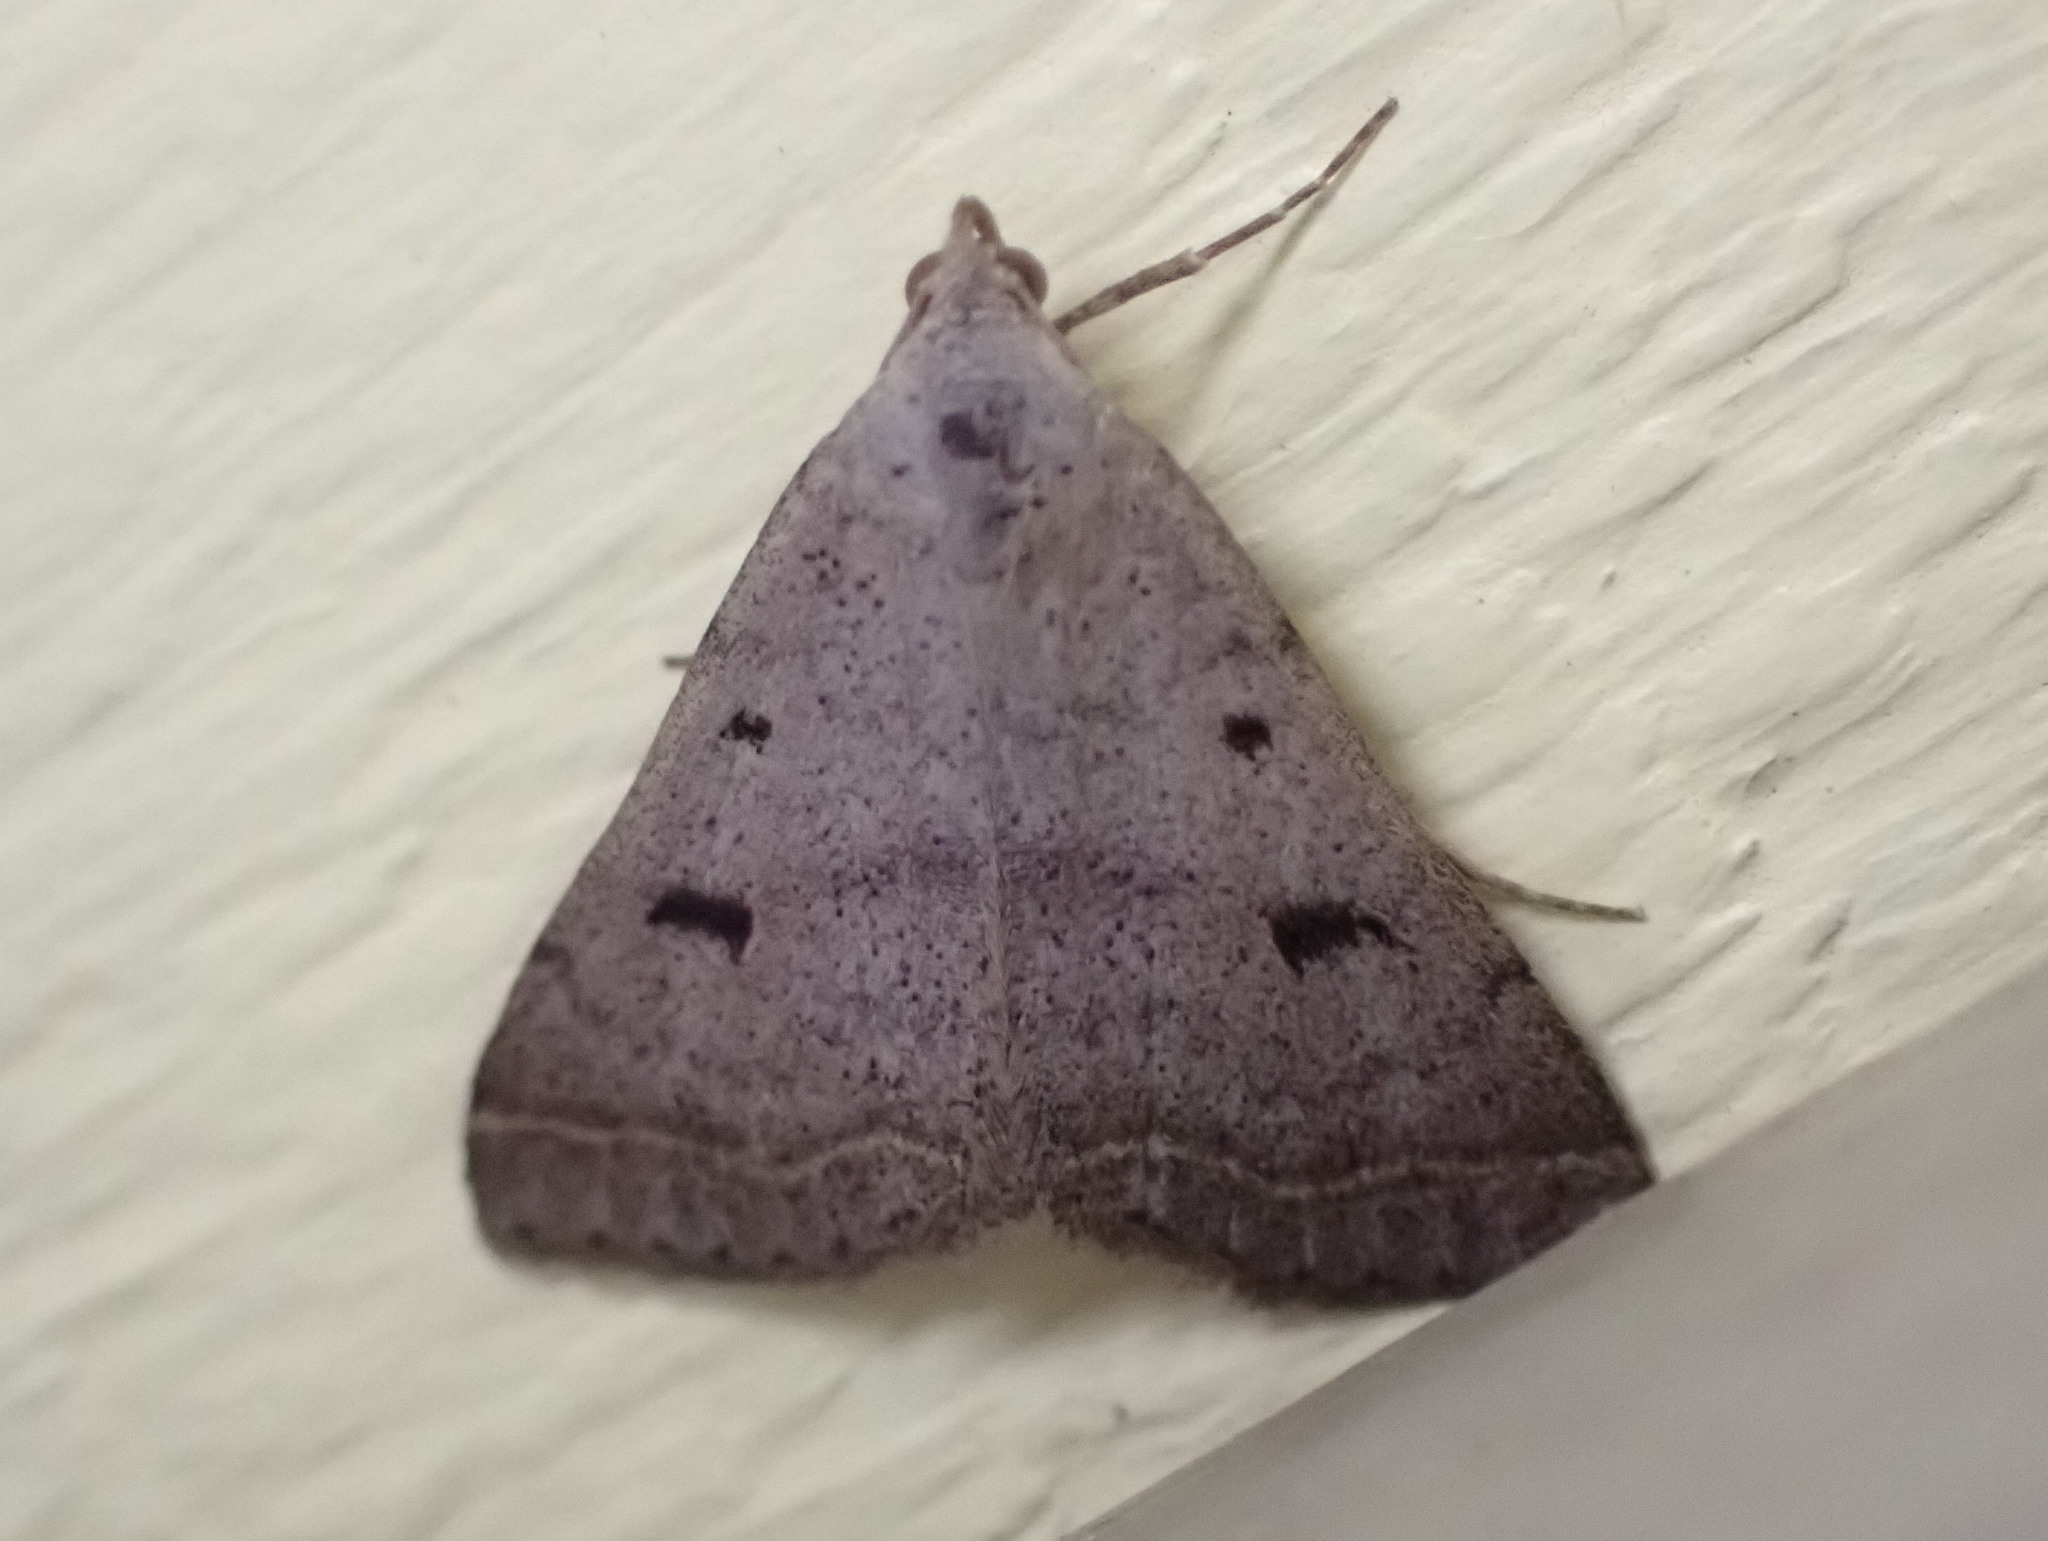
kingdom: Animalia
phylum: Arthropoda
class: Insecta
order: Lepidoptera
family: Erebidae
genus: Bleptina
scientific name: Bleptina caradrinalis
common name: Bent-winged owlet
